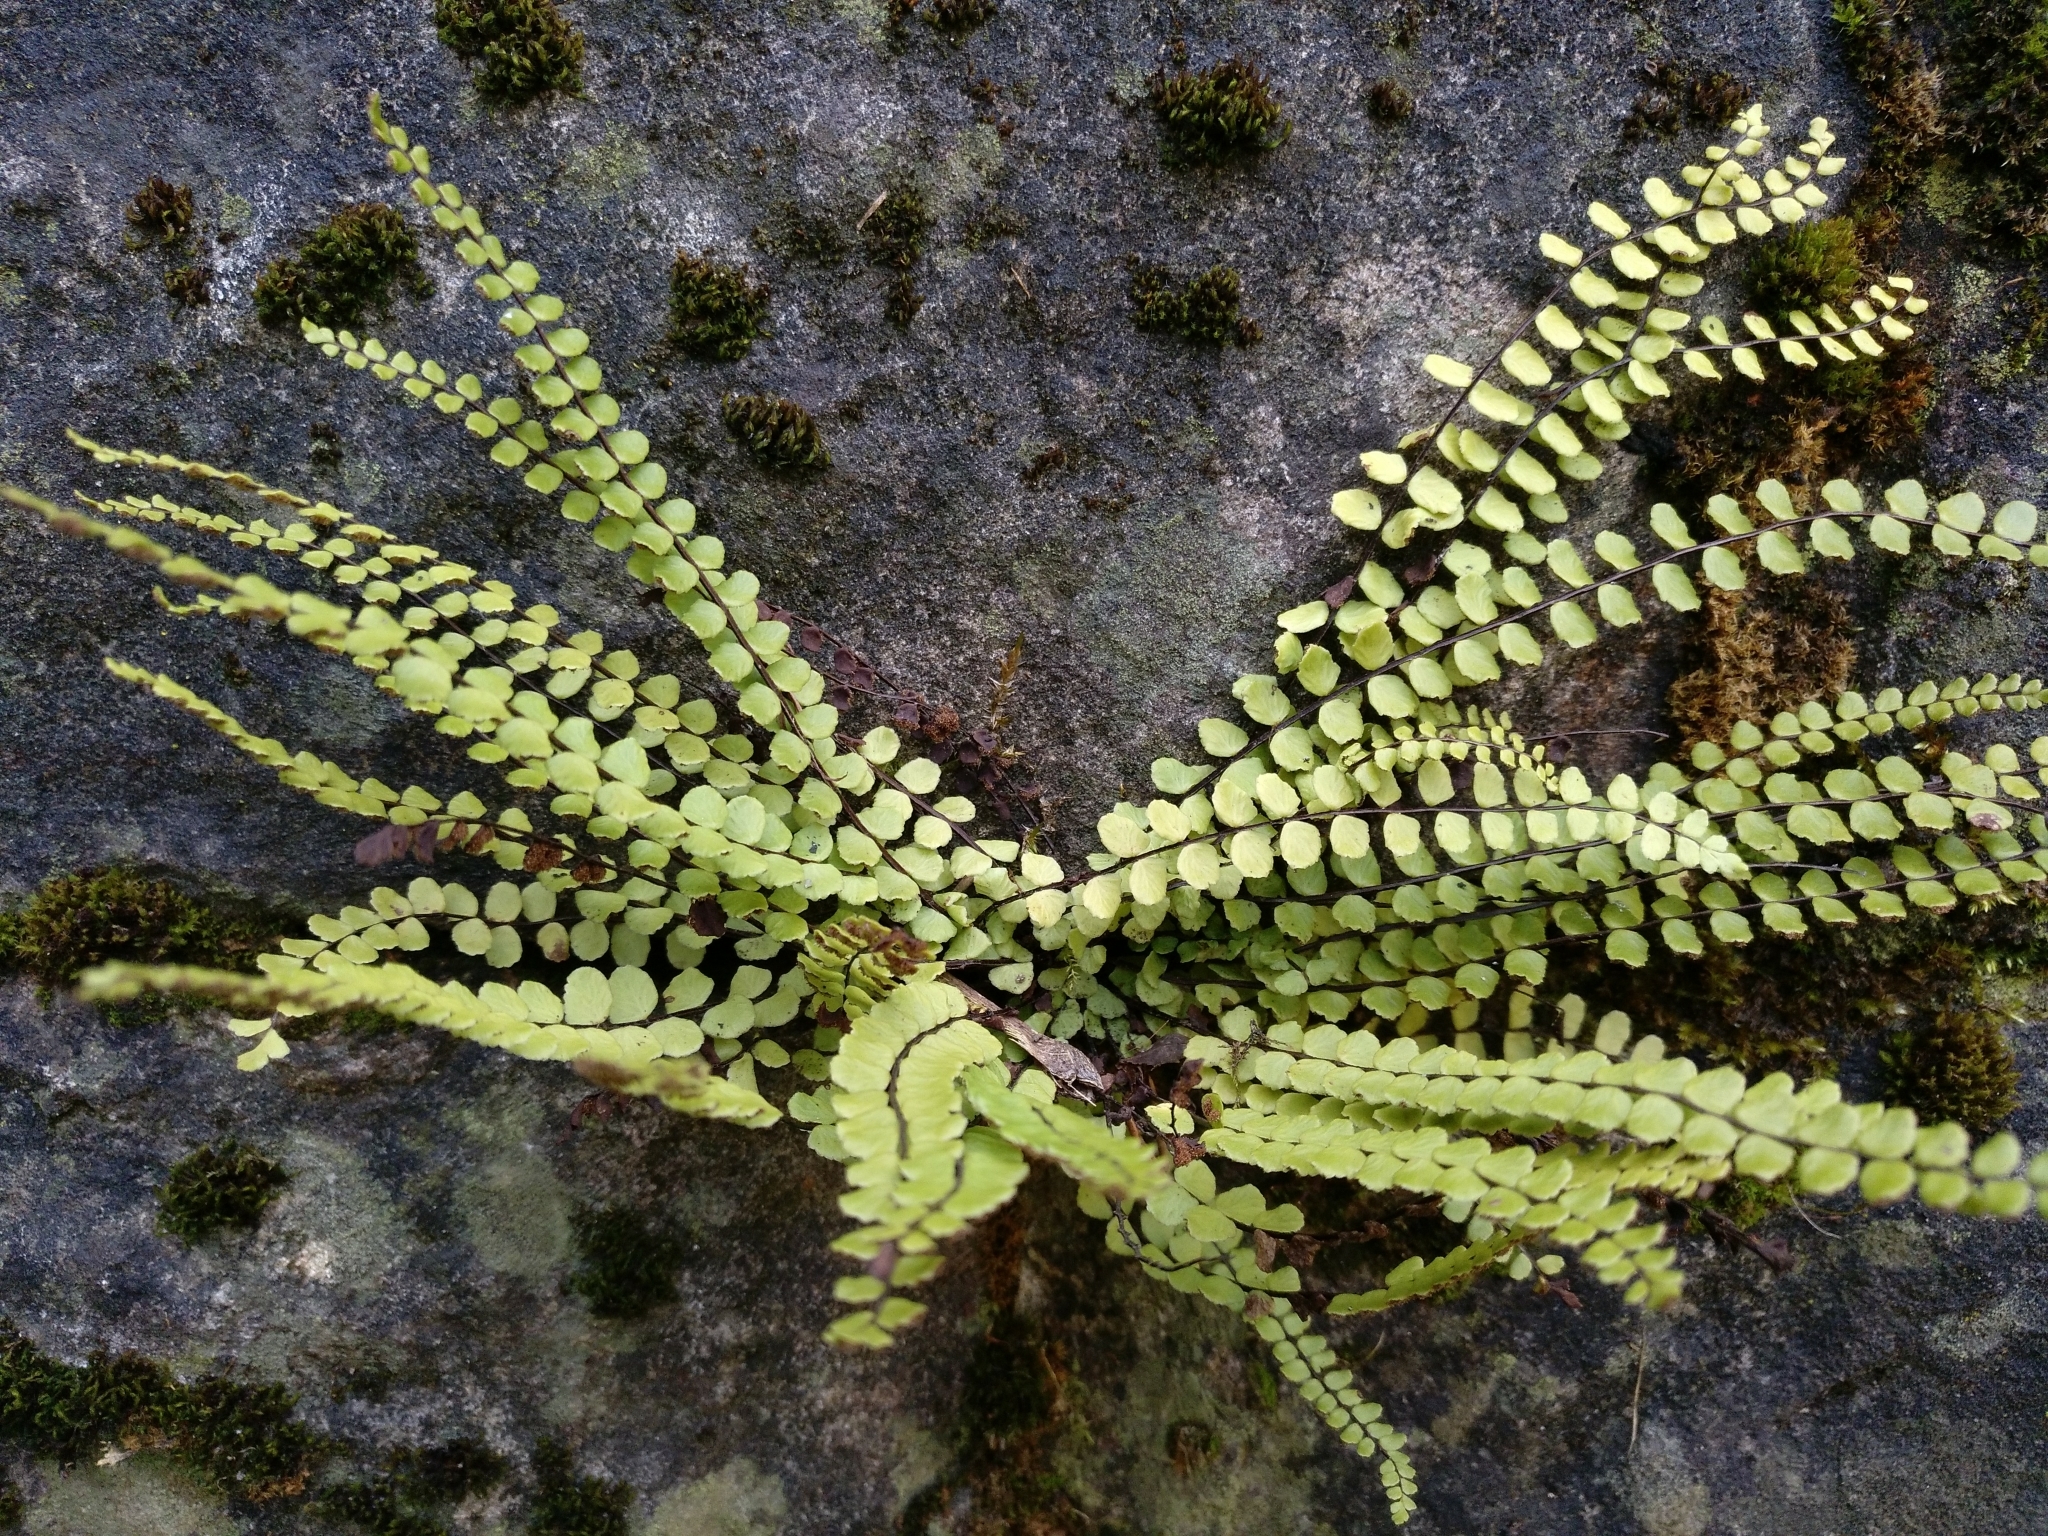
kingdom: Plantae
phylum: Tracheophyta
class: Polypodiopsida
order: Polypodiales
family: Aspleniaceae
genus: Asplenium
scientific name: Asplenium trichomanes
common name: Maidenhair spleenwort
